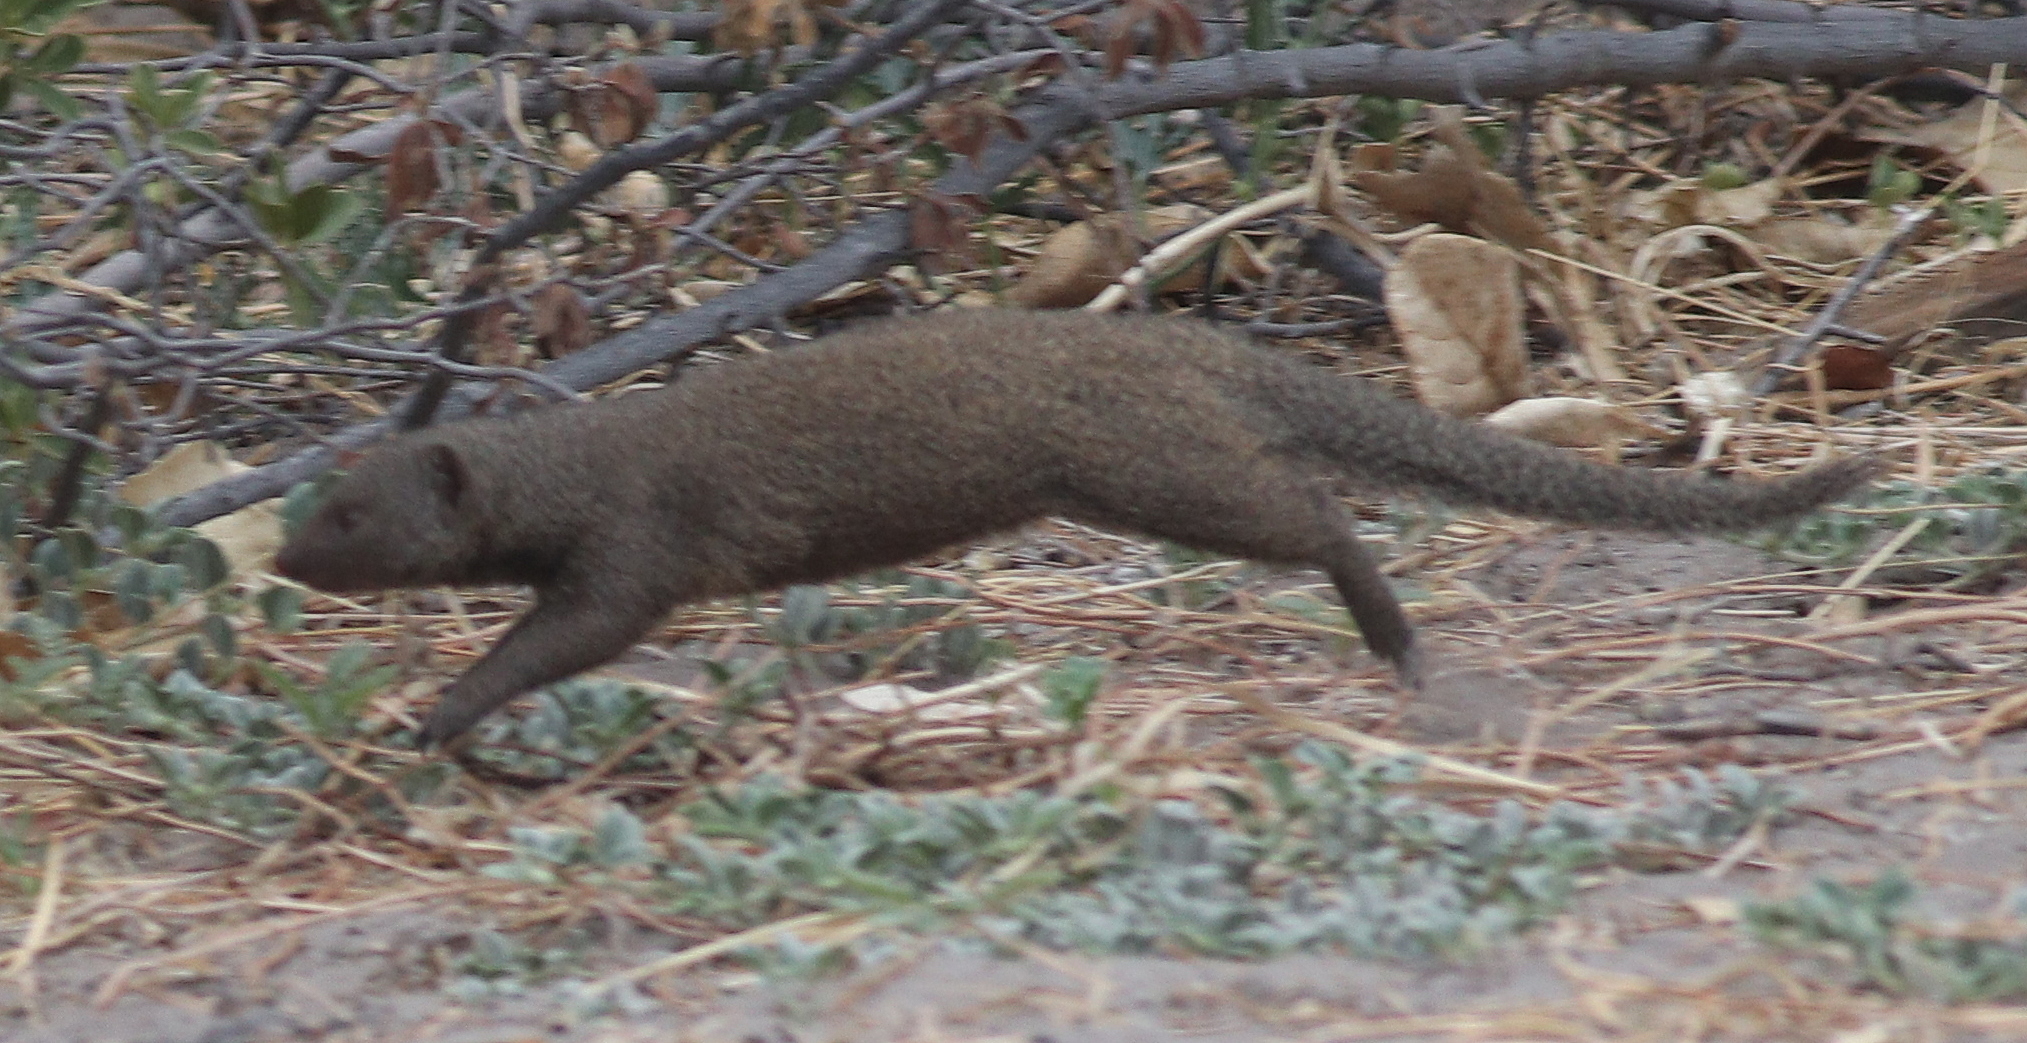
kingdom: Animalia
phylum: Chordata
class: Mammalia
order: Carnivora
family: Herpestidae
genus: Helogale
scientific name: Helogale parvula
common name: Common dwarf mongoose
